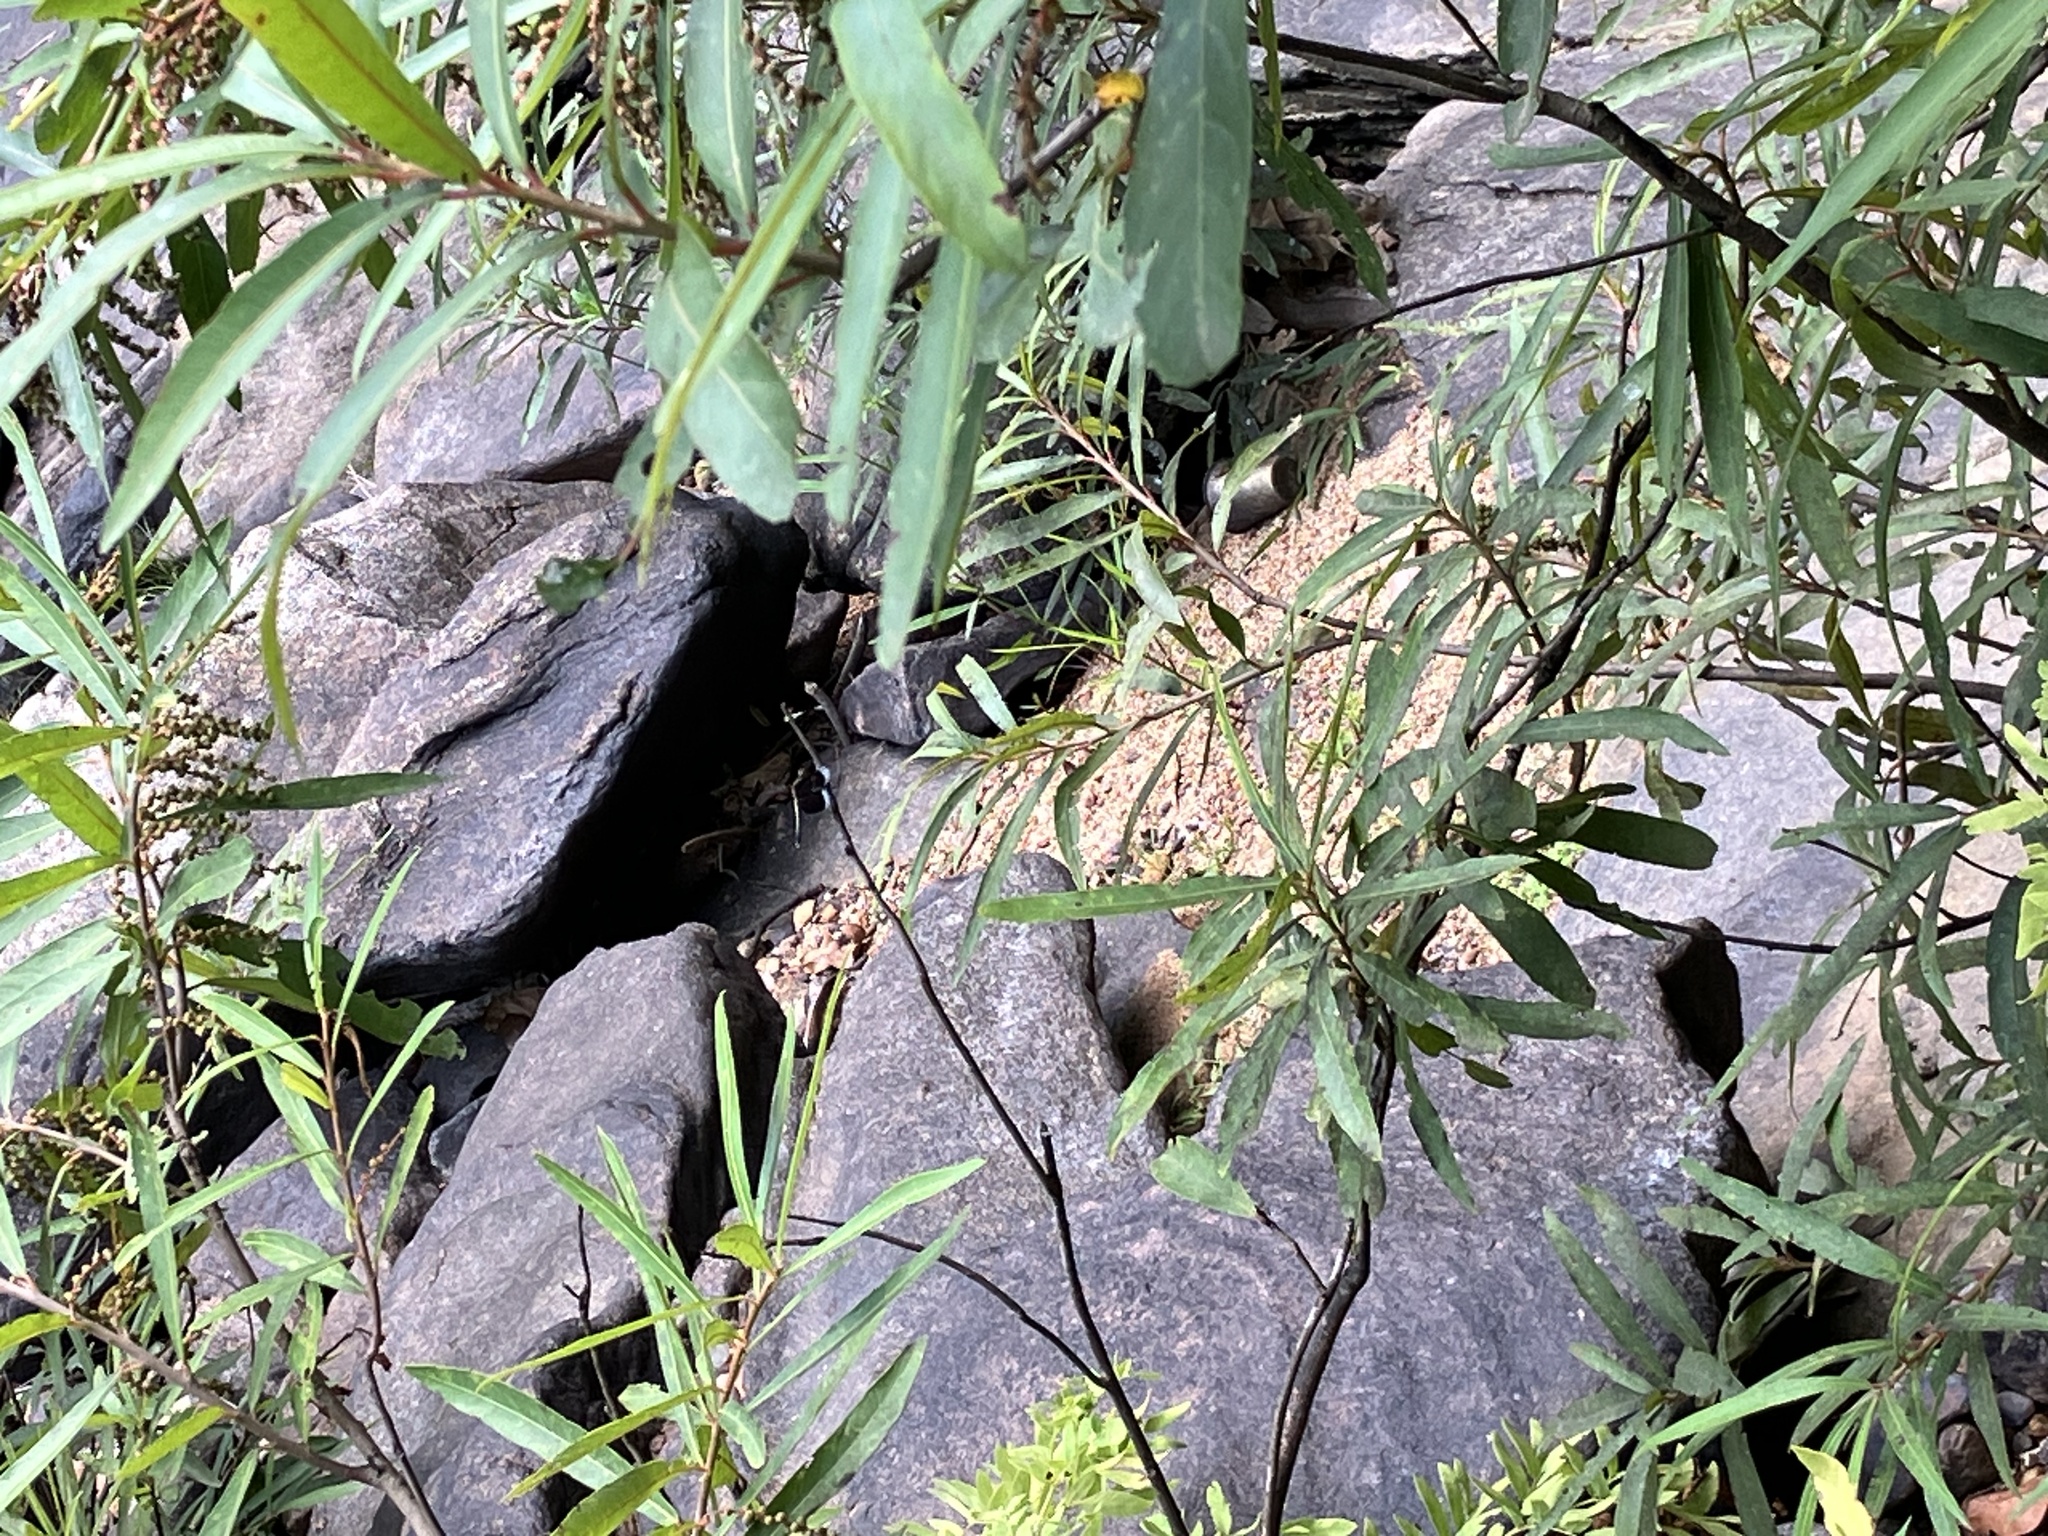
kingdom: Animalia
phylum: Arthropoda
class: Insecta
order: Odonata
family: Libellulidae
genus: Neurothemis
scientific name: Neurothemis tullia
